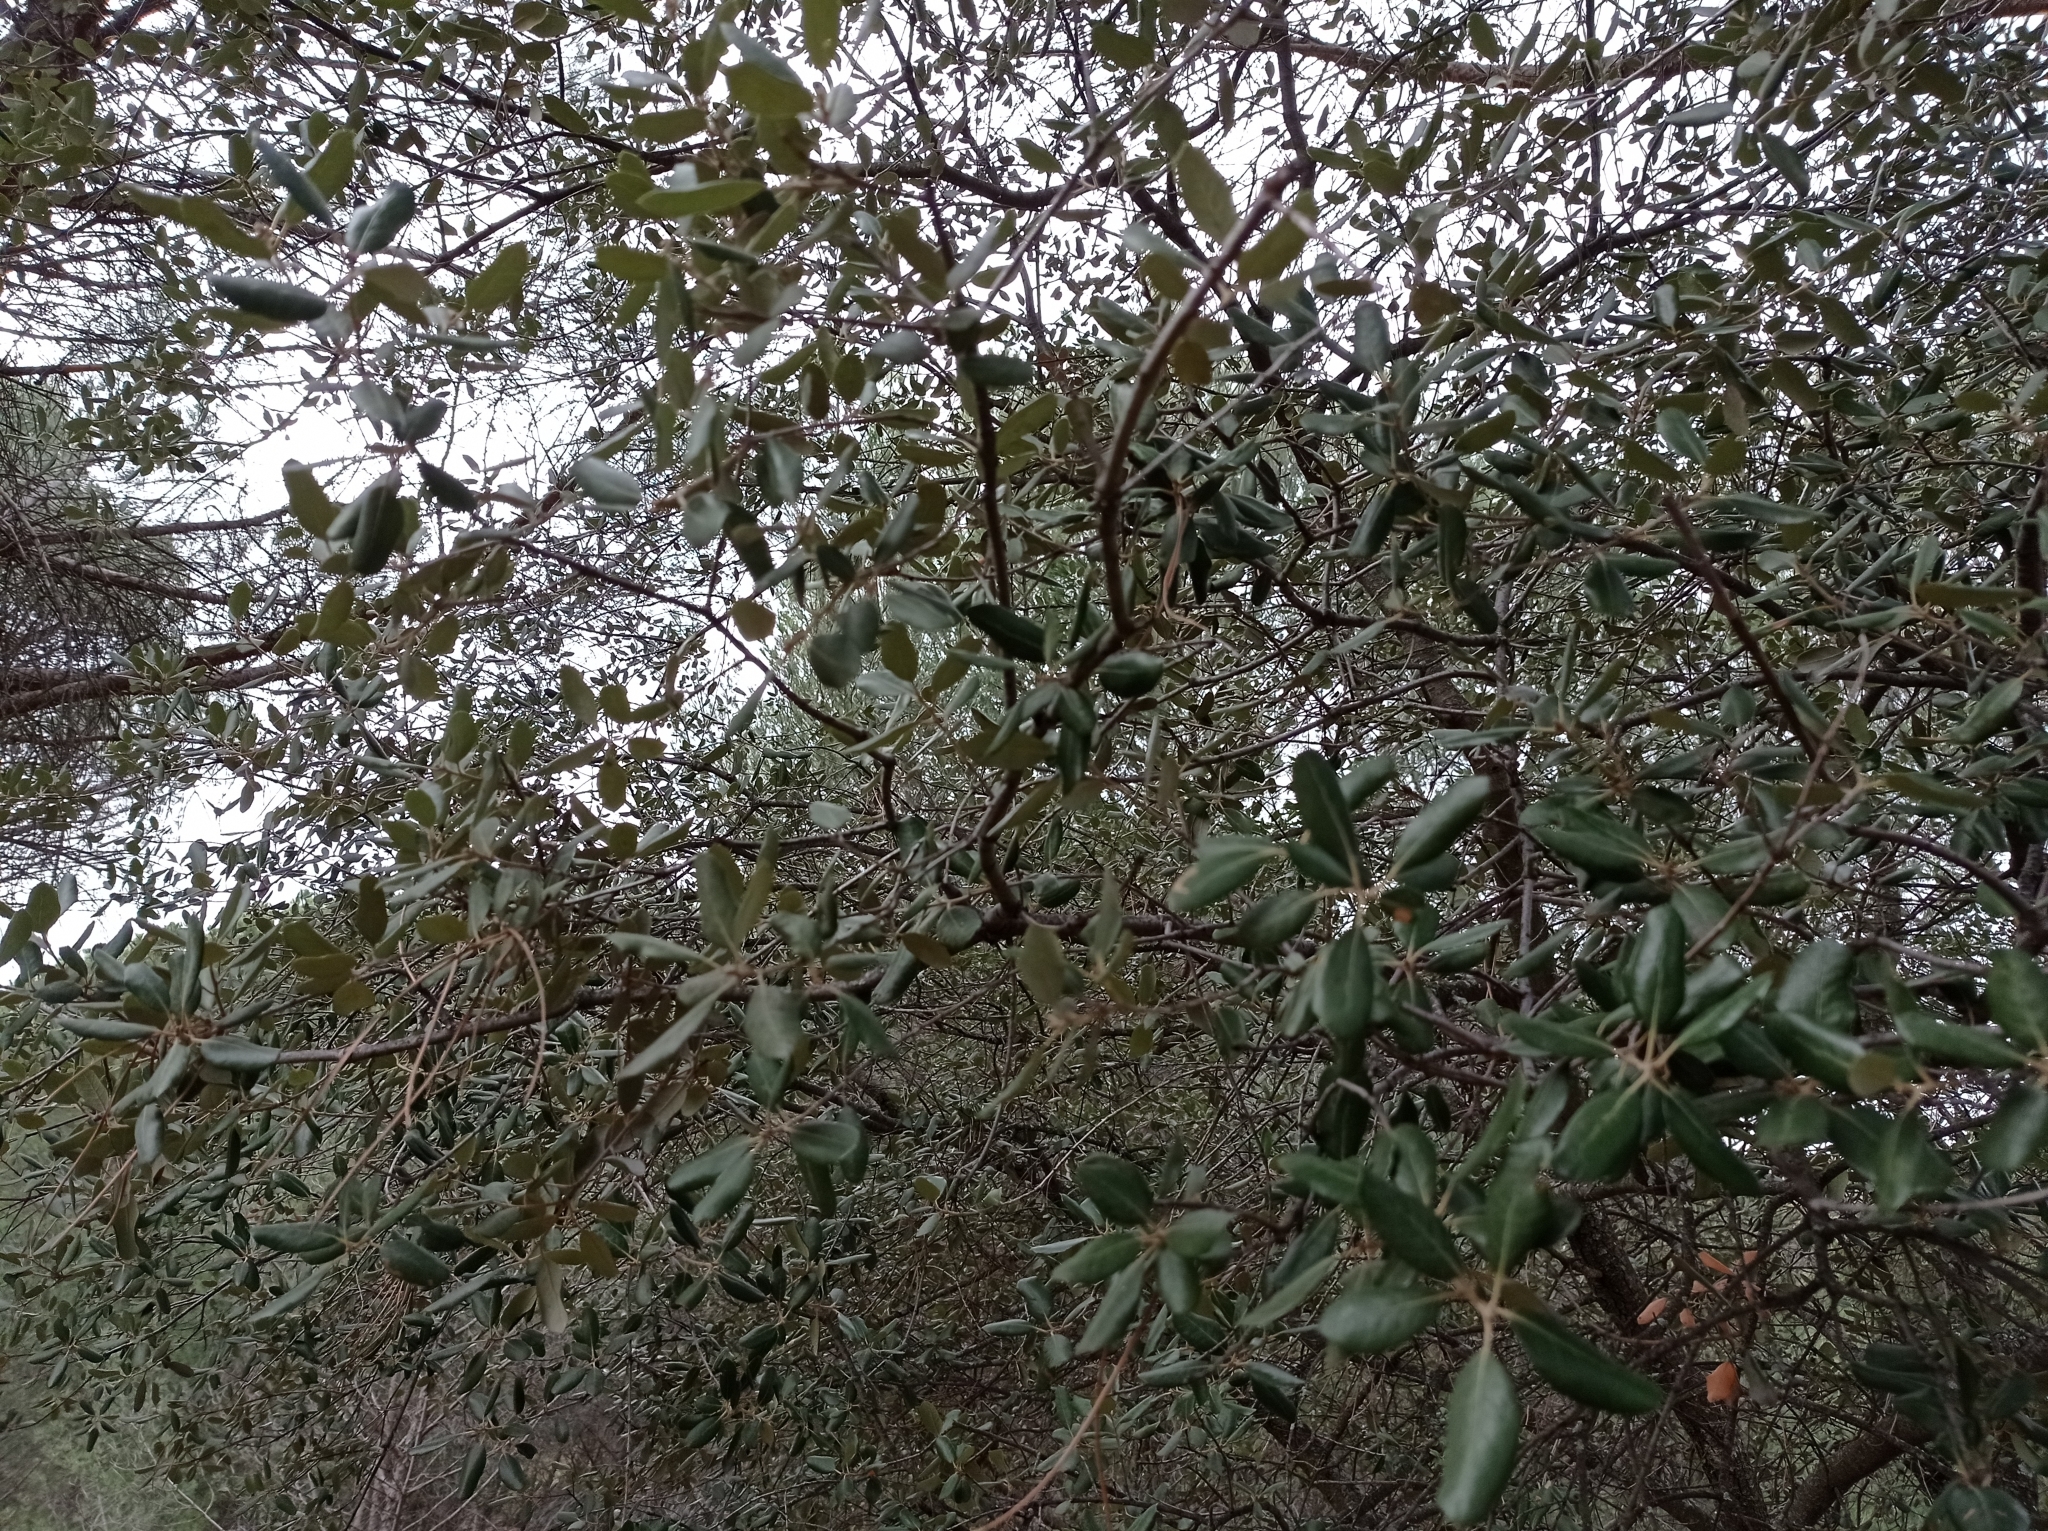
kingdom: Plantae
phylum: Tracheophyta
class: Magnoliopsida
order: Fagales
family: Fagaceae
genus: Quercus
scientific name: Quercus rotundifolia
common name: Holm oak
